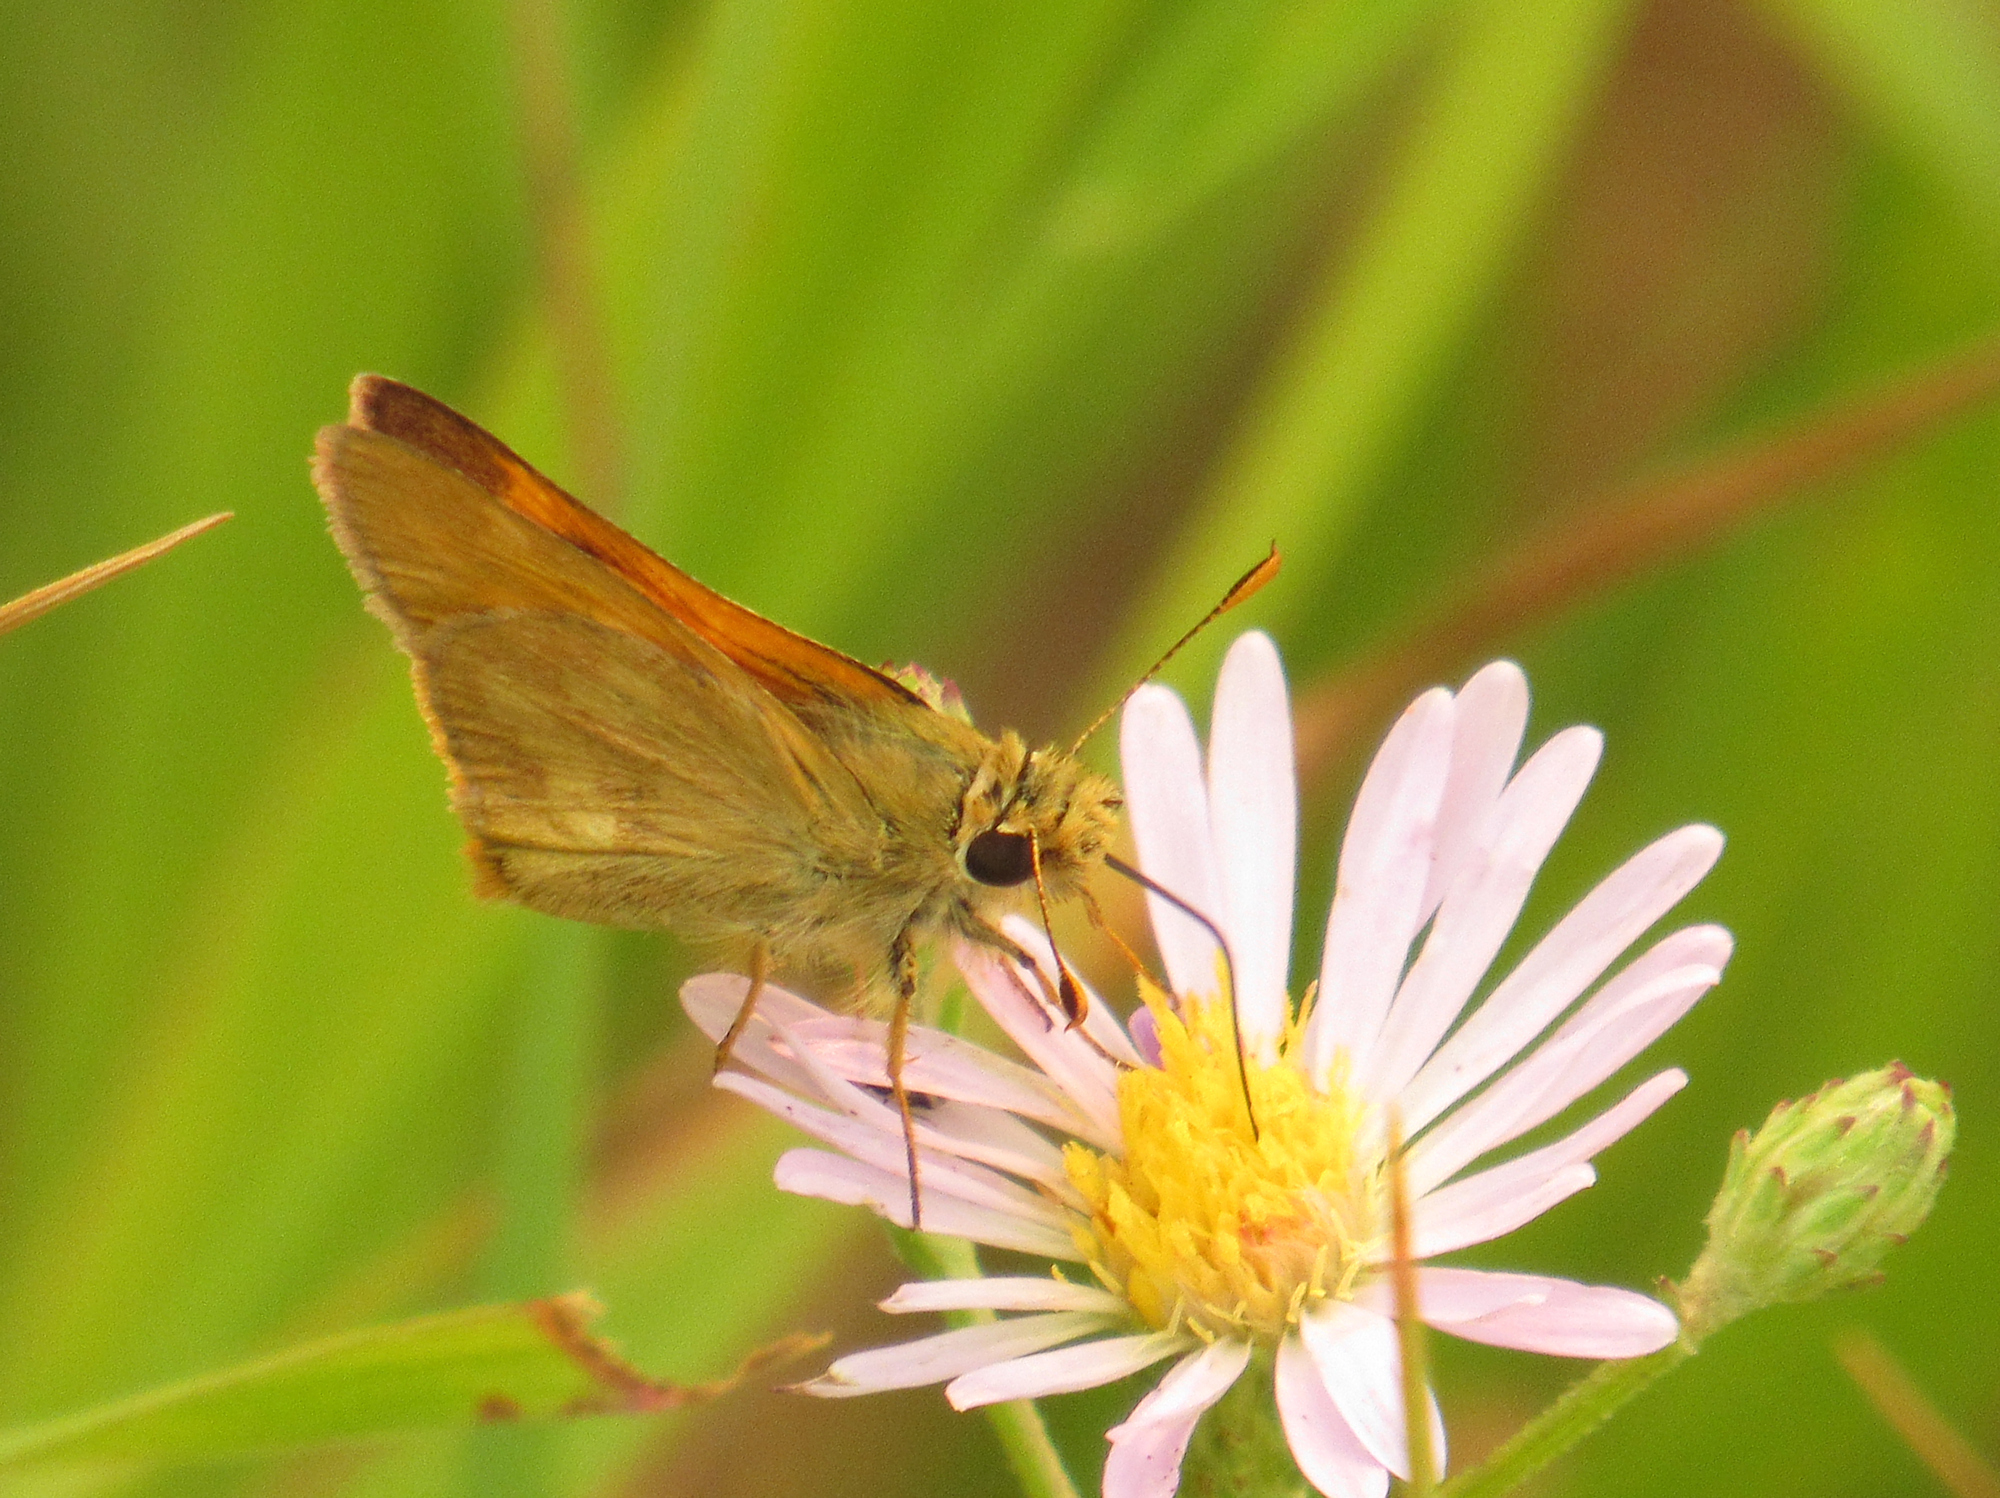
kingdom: Animalia
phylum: Arthropoda
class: Insecta
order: Lepidoptera
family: Hesperiidae
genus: Ochlodes
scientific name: Ochlodes sylvanoides
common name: Woodland skipper
